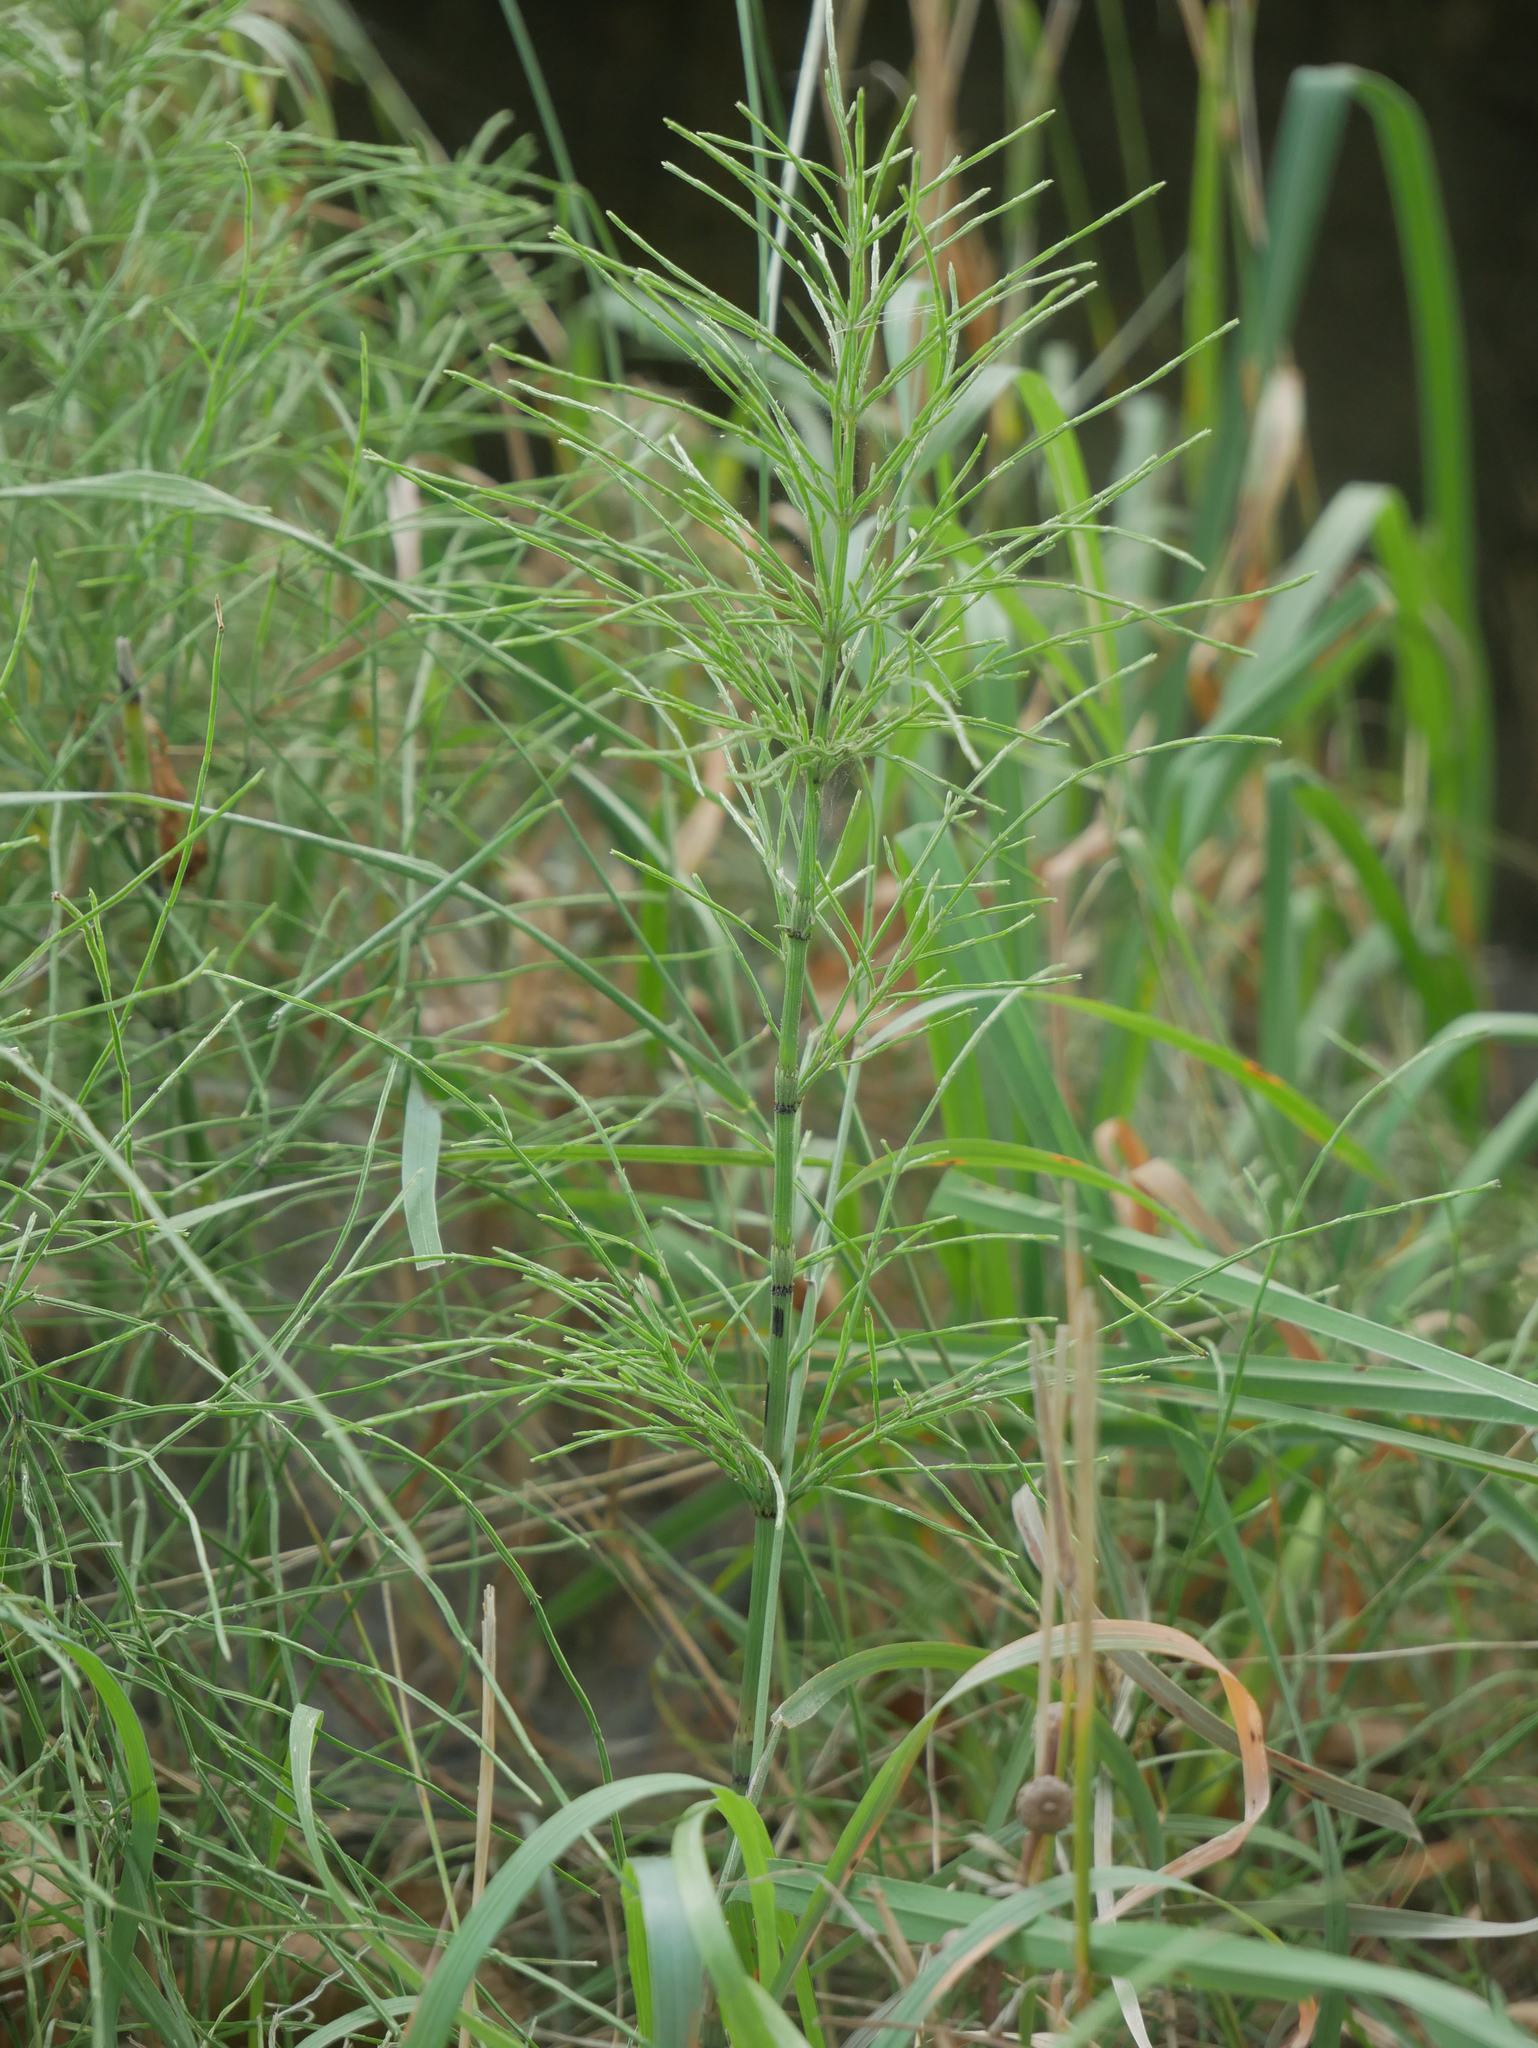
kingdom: Plantae
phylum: Tracheophyta
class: Polypodiopsida
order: Equisetales
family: Equisetaceae
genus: Equisetum
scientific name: Equisetum arvense
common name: Field horsetail
